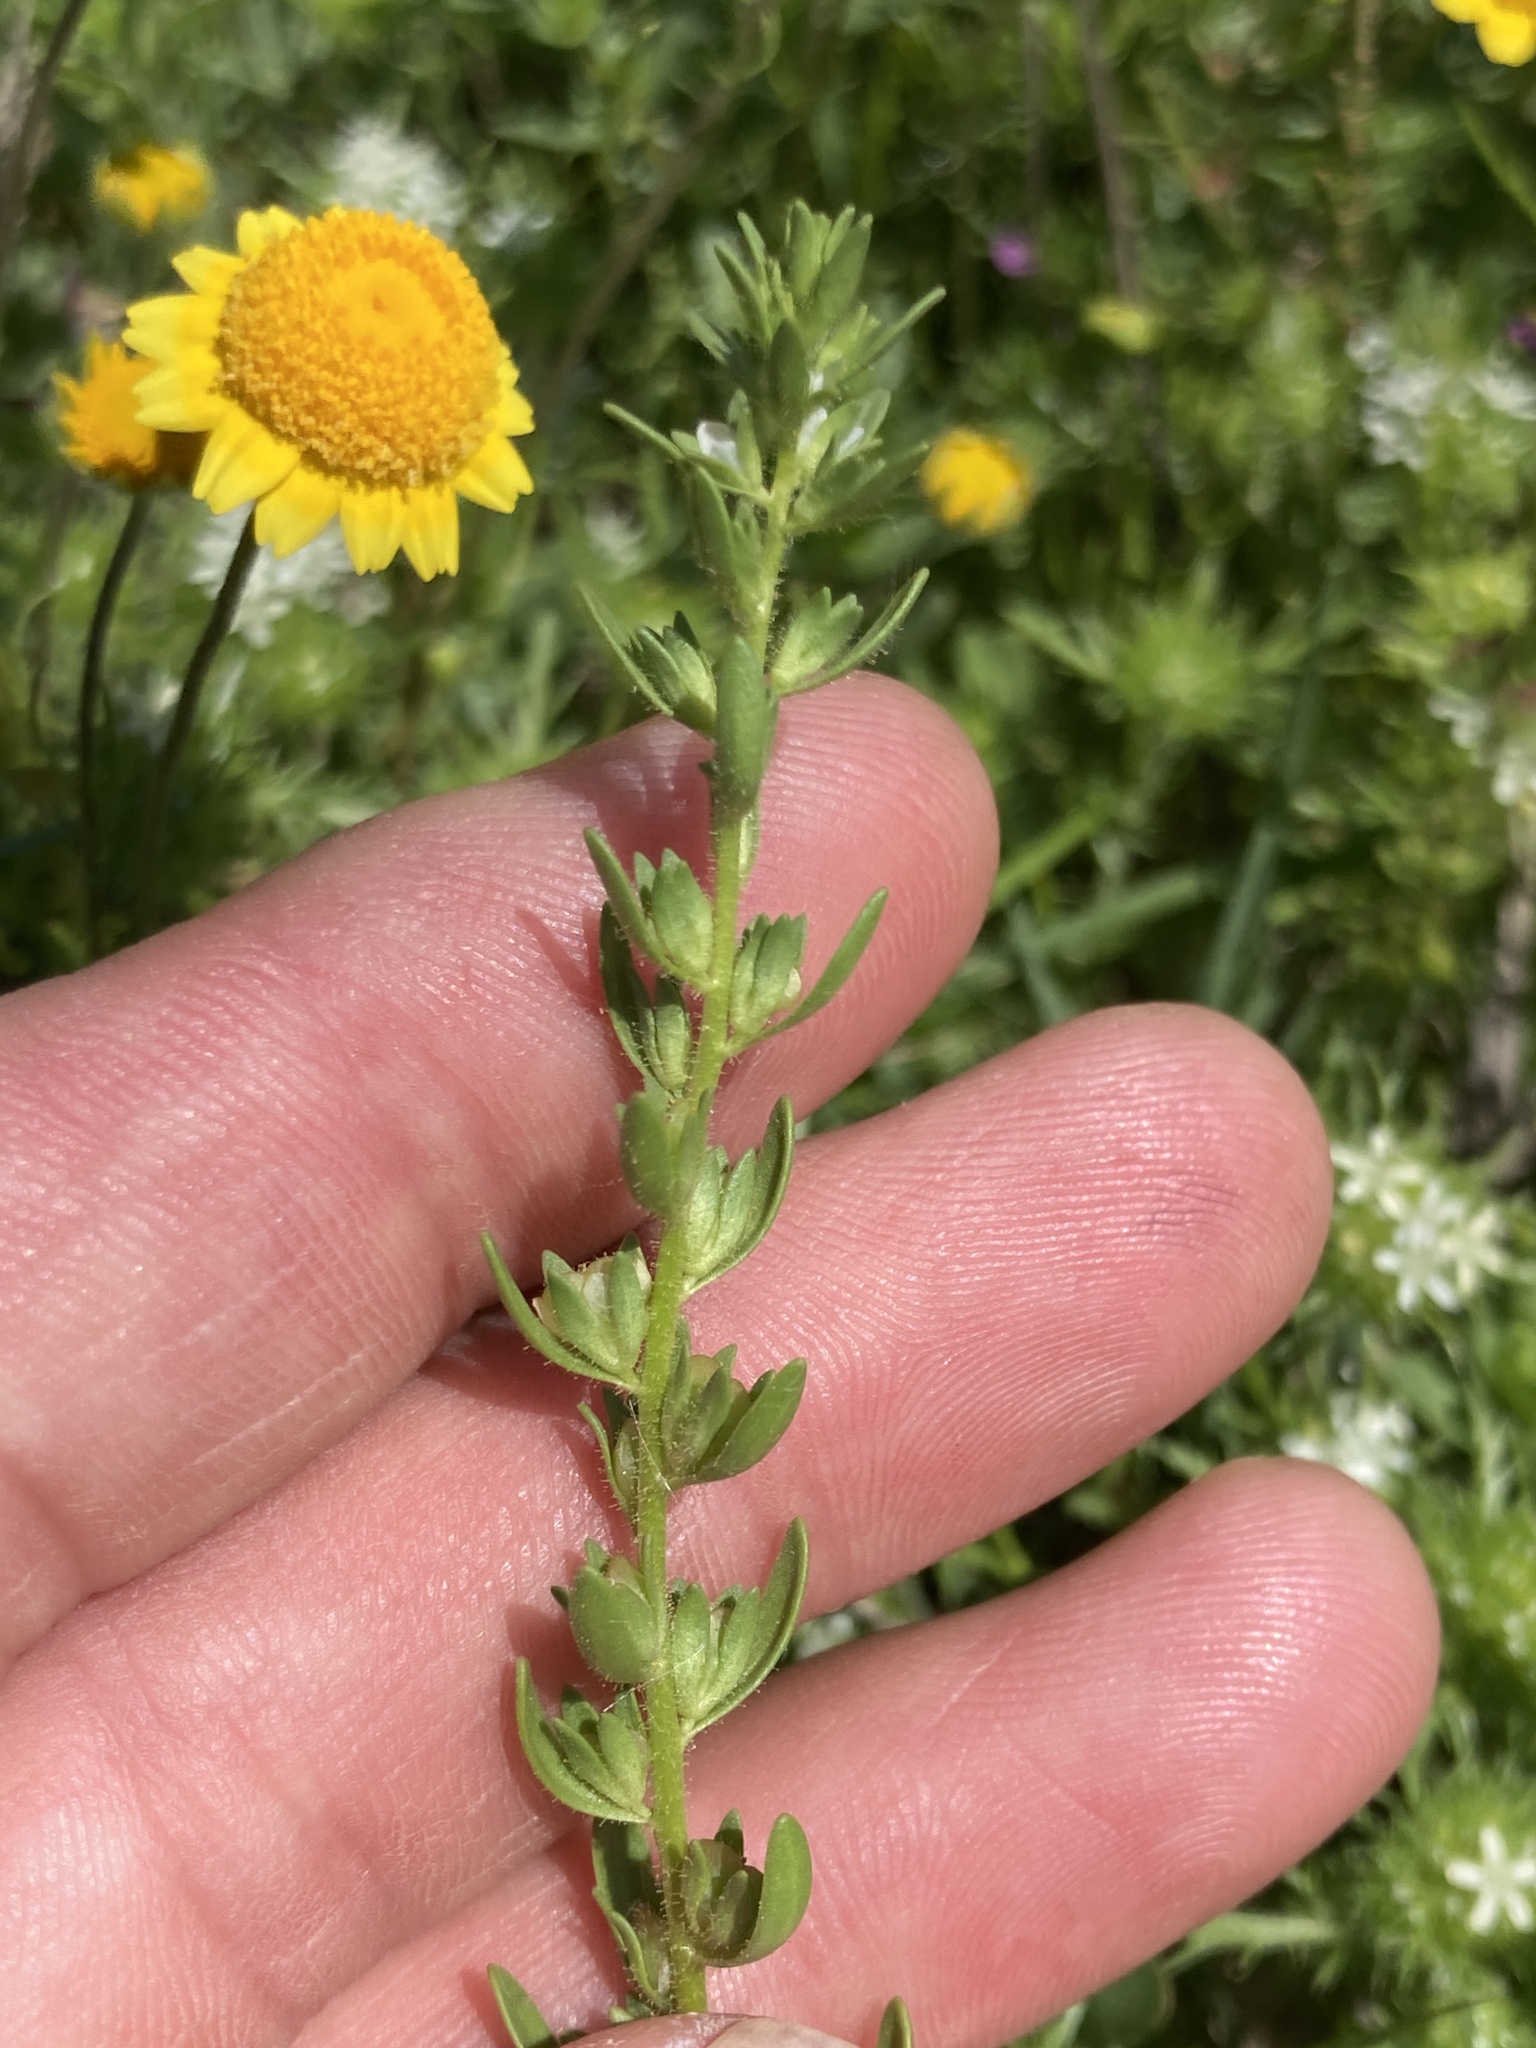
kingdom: Plantae
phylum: Tracheophyta
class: Magnoliopsida
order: Lamiales
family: Plantaginaceae
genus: Veronica
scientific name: Veronica peregrina
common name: Neckweed
